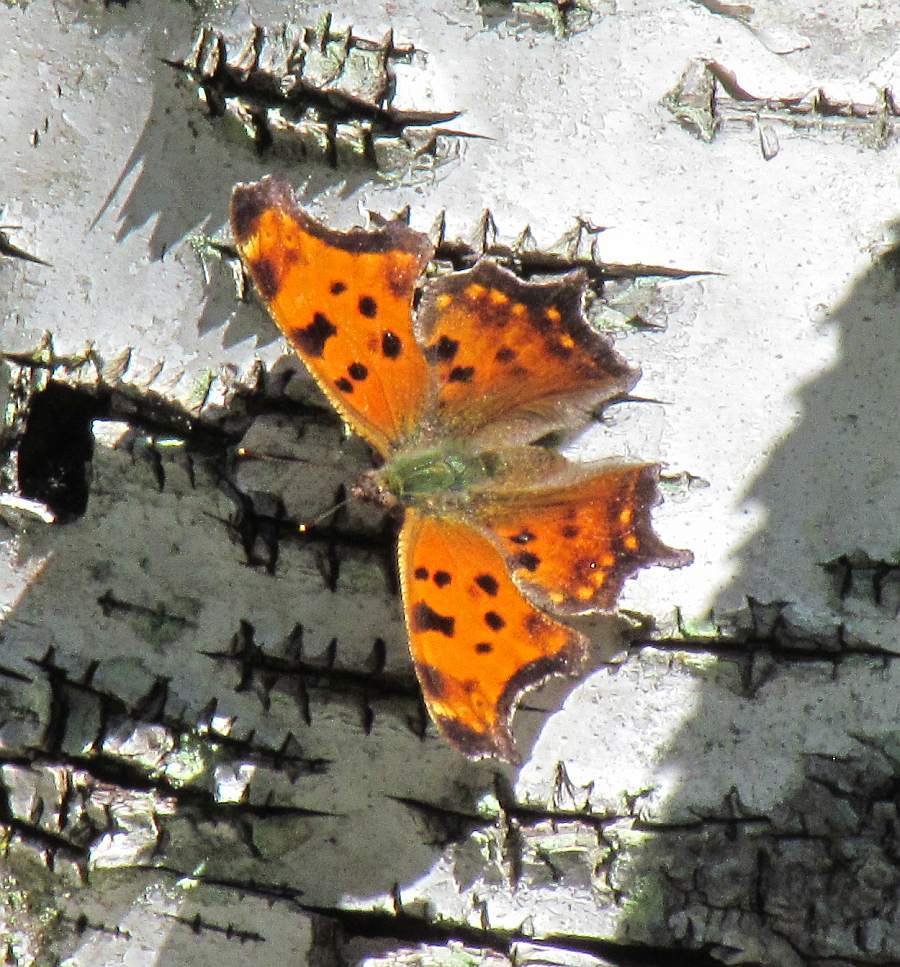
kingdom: Animalia
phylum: Arthropoda
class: Insecta
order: Lepidoptera
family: Nymphalidae
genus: Polygonia
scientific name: Polygonia comma
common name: Eastern comma
